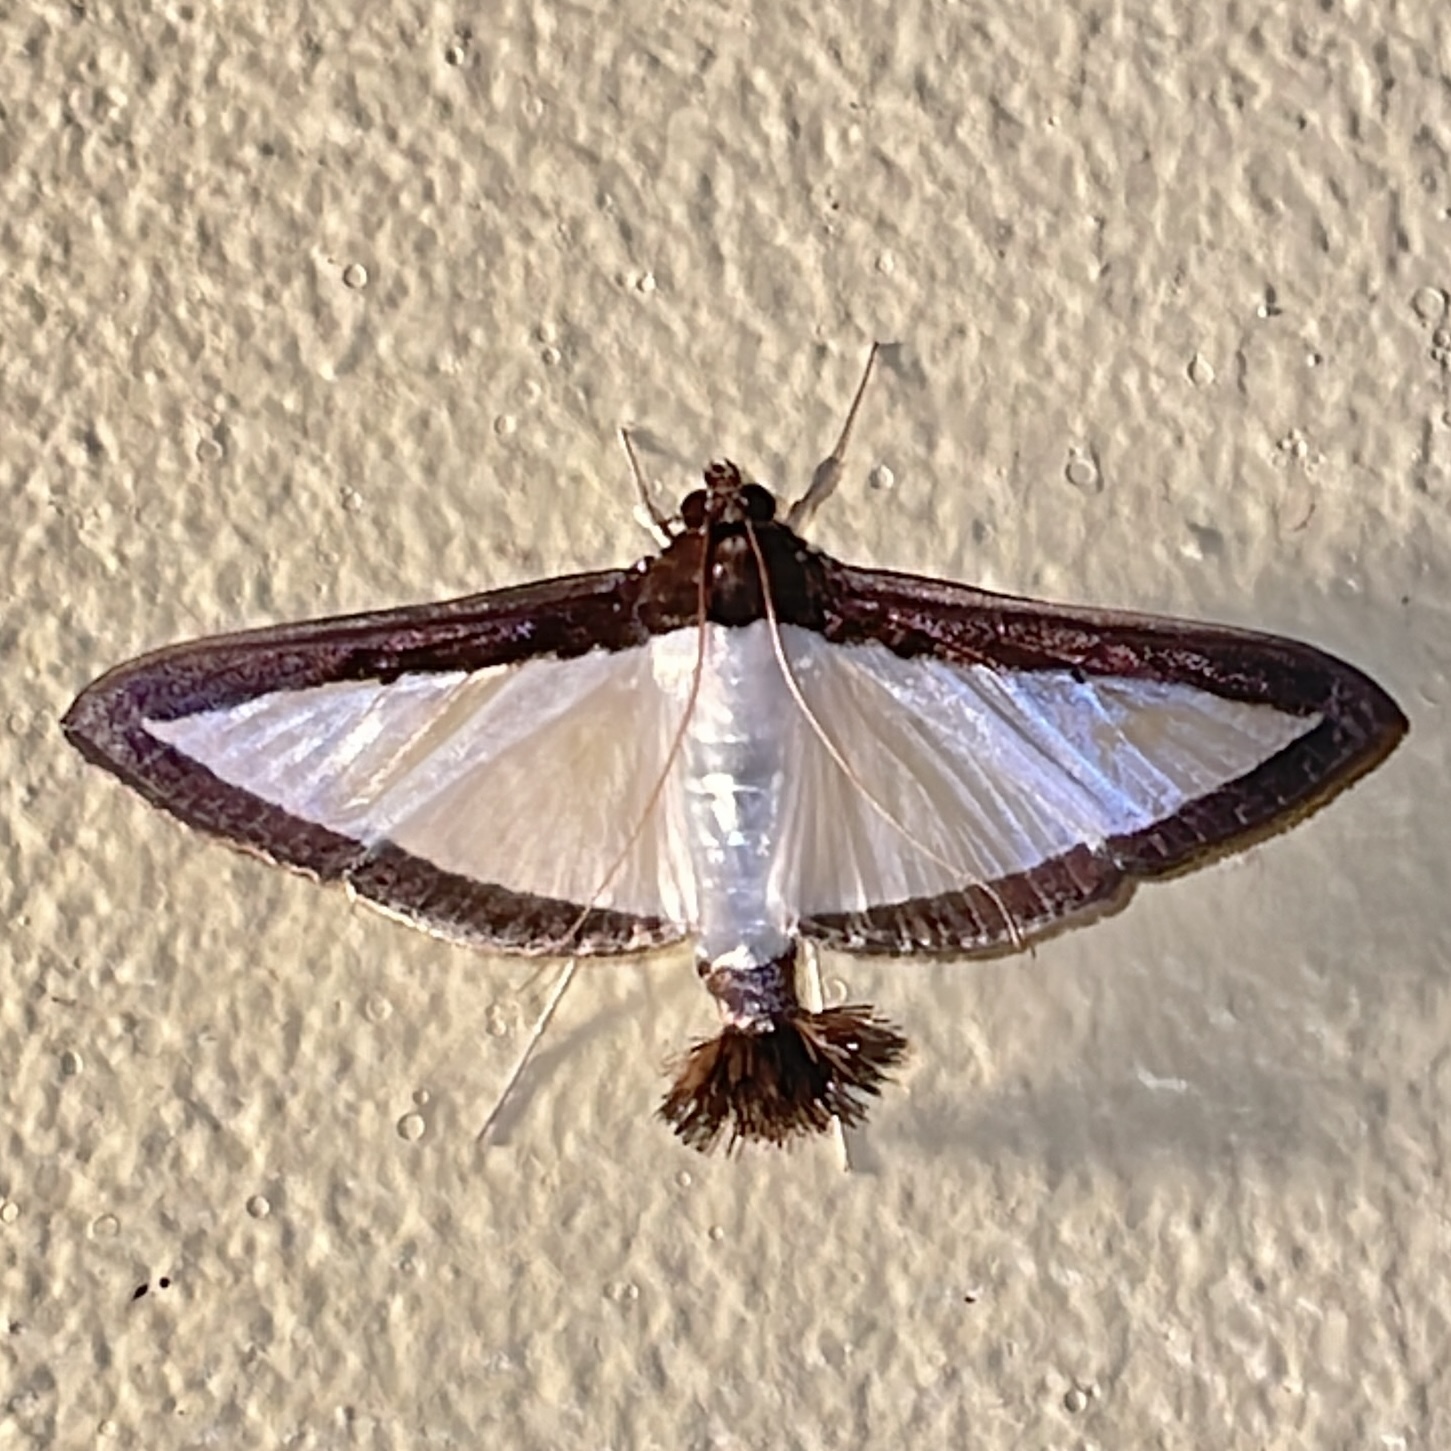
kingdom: Animalia
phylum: Arthropoda
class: Insecta
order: Lepidoptera
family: Crambidae
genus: Diaphania
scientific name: Diaphania superalis
